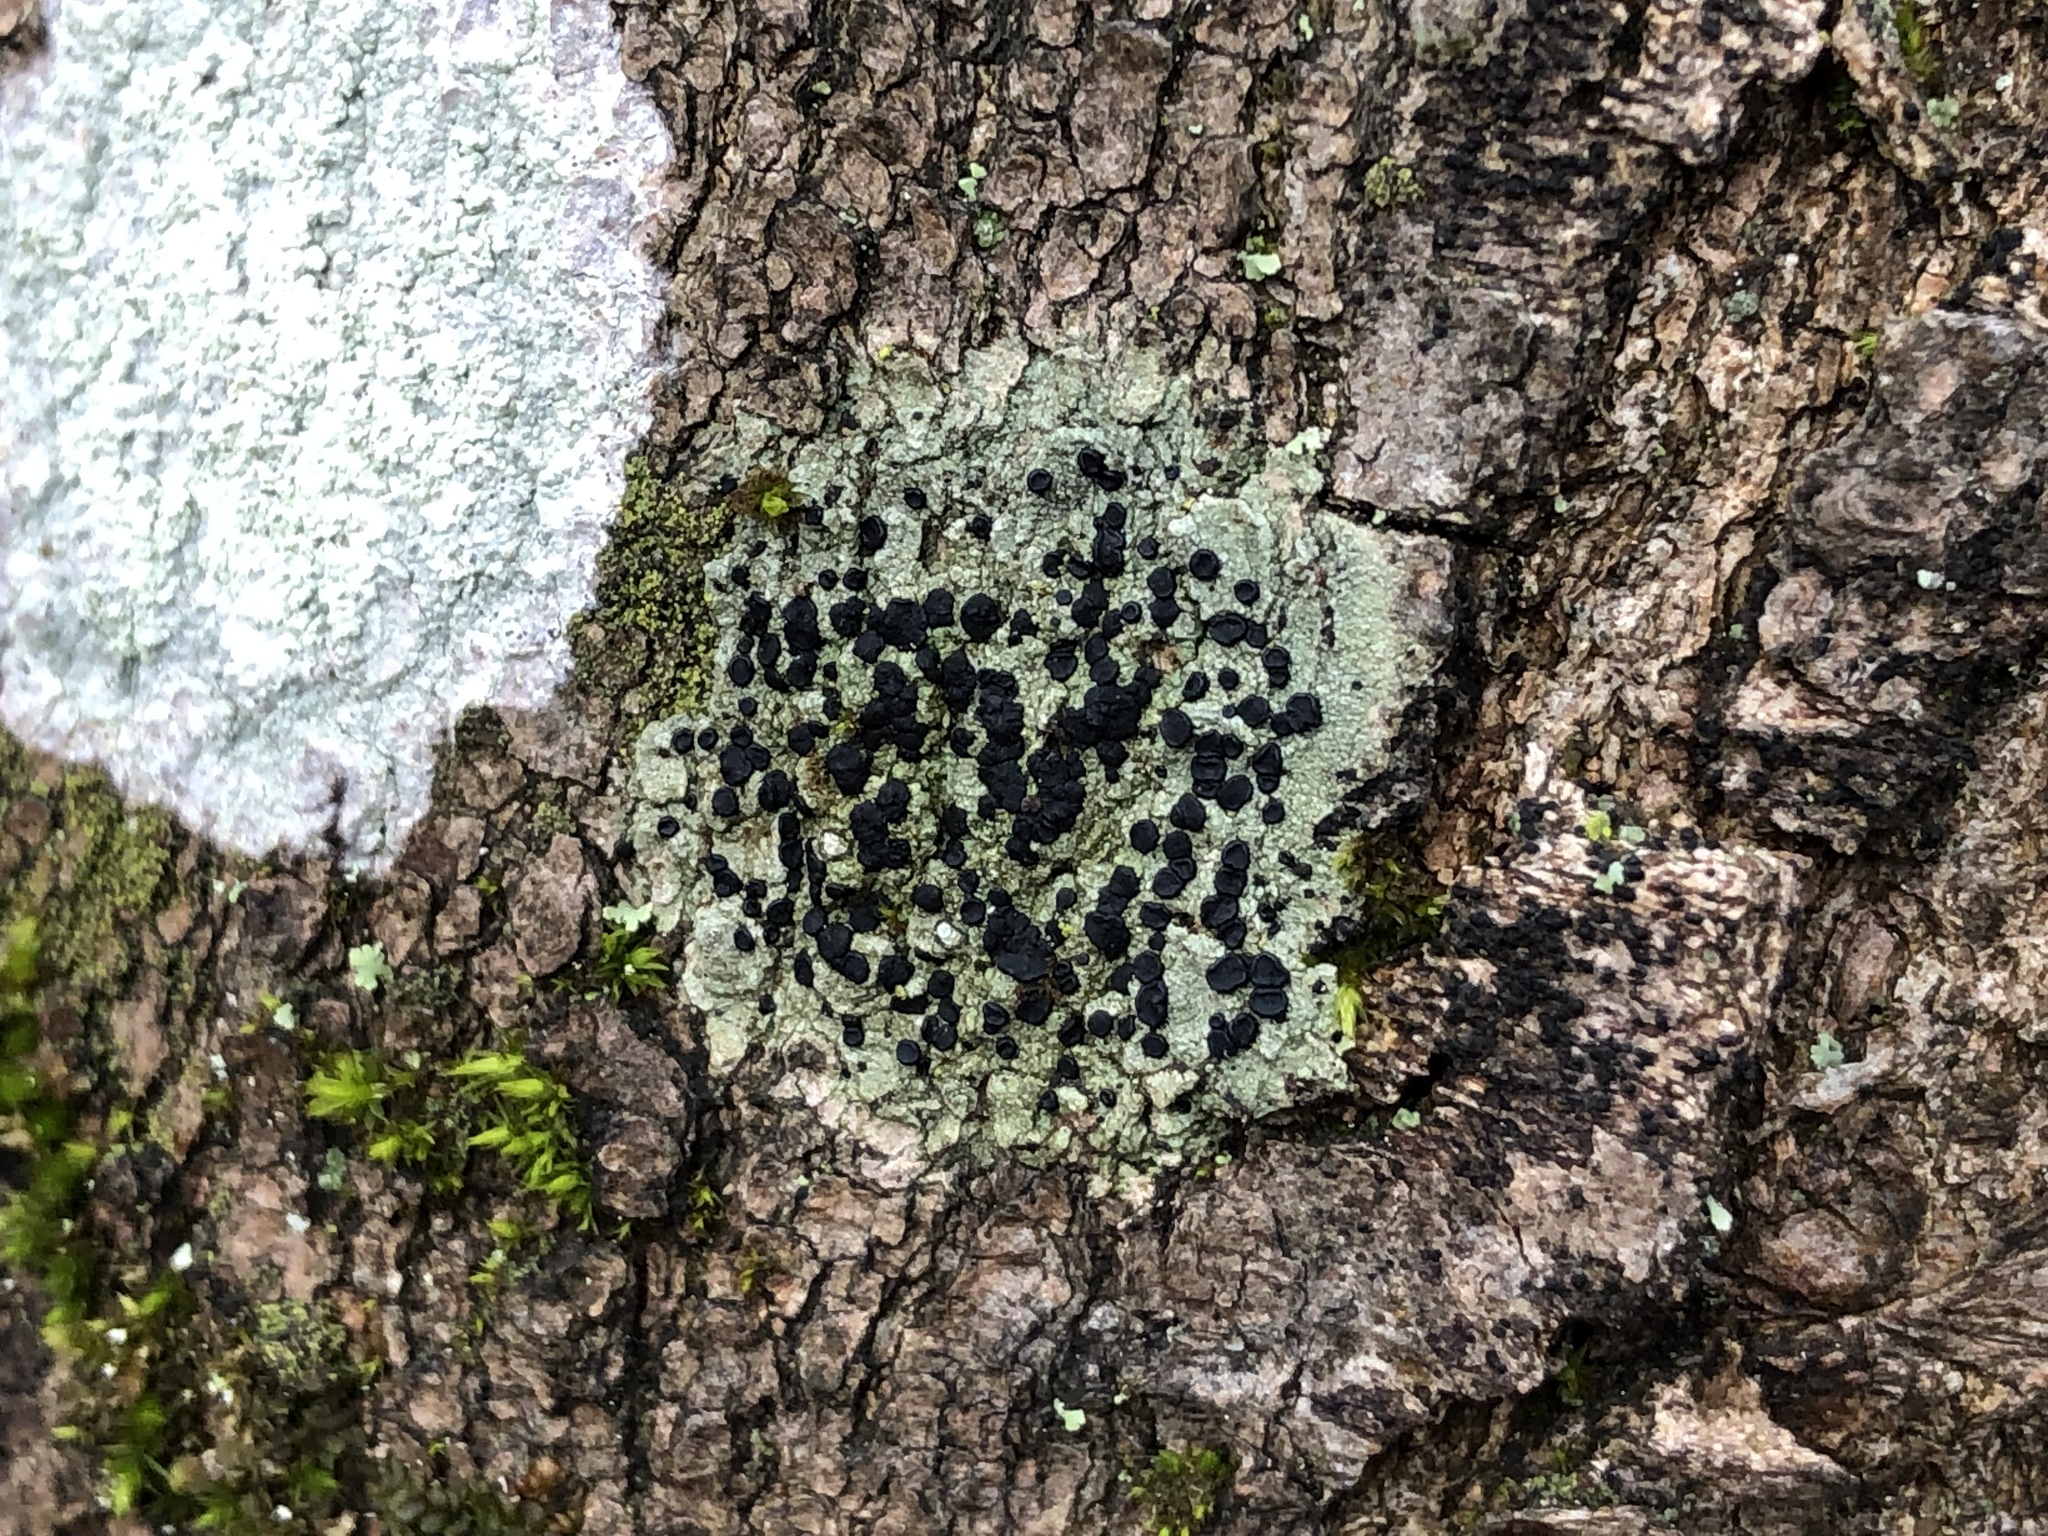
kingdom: Fungi
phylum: Ascomycota
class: Lecanoromycetes
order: Lecanorales
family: Lecanoraceae
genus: Lecidella
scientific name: Lecidella elaeochroma
